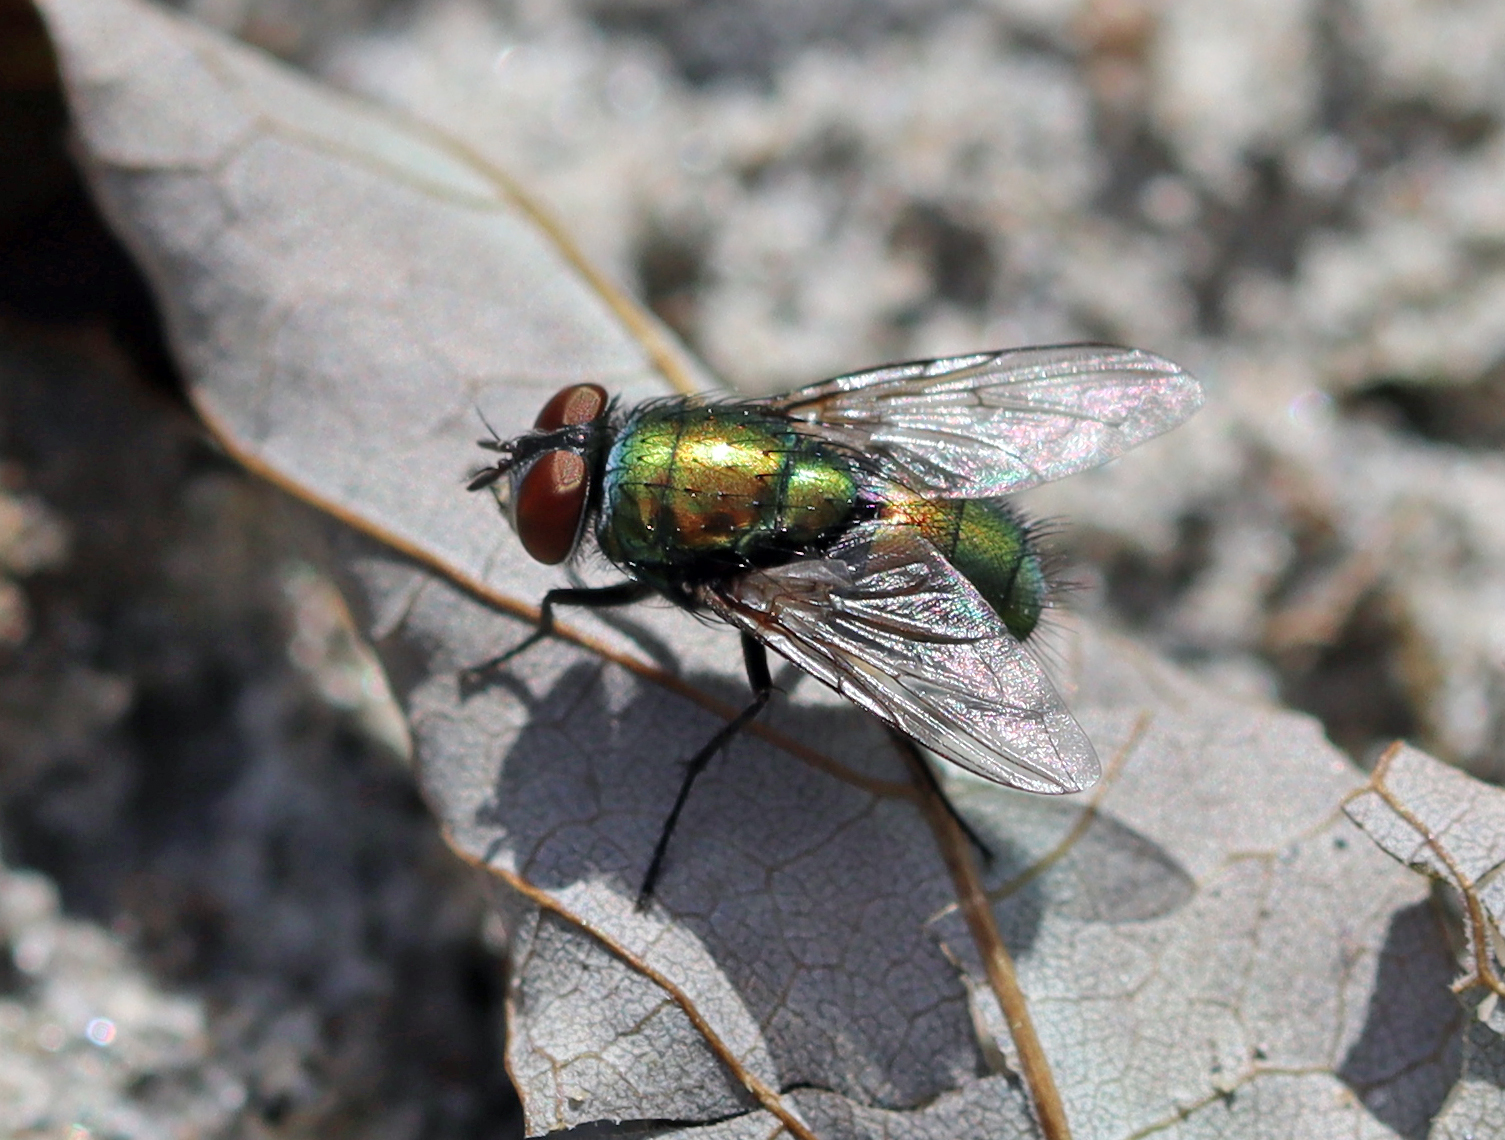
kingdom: Animalia
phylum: Arthropoda
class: Insecta
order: Diptera
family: Calliphoridae
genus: Lucilia
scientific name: Lucilia sericata
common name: Blow fly
